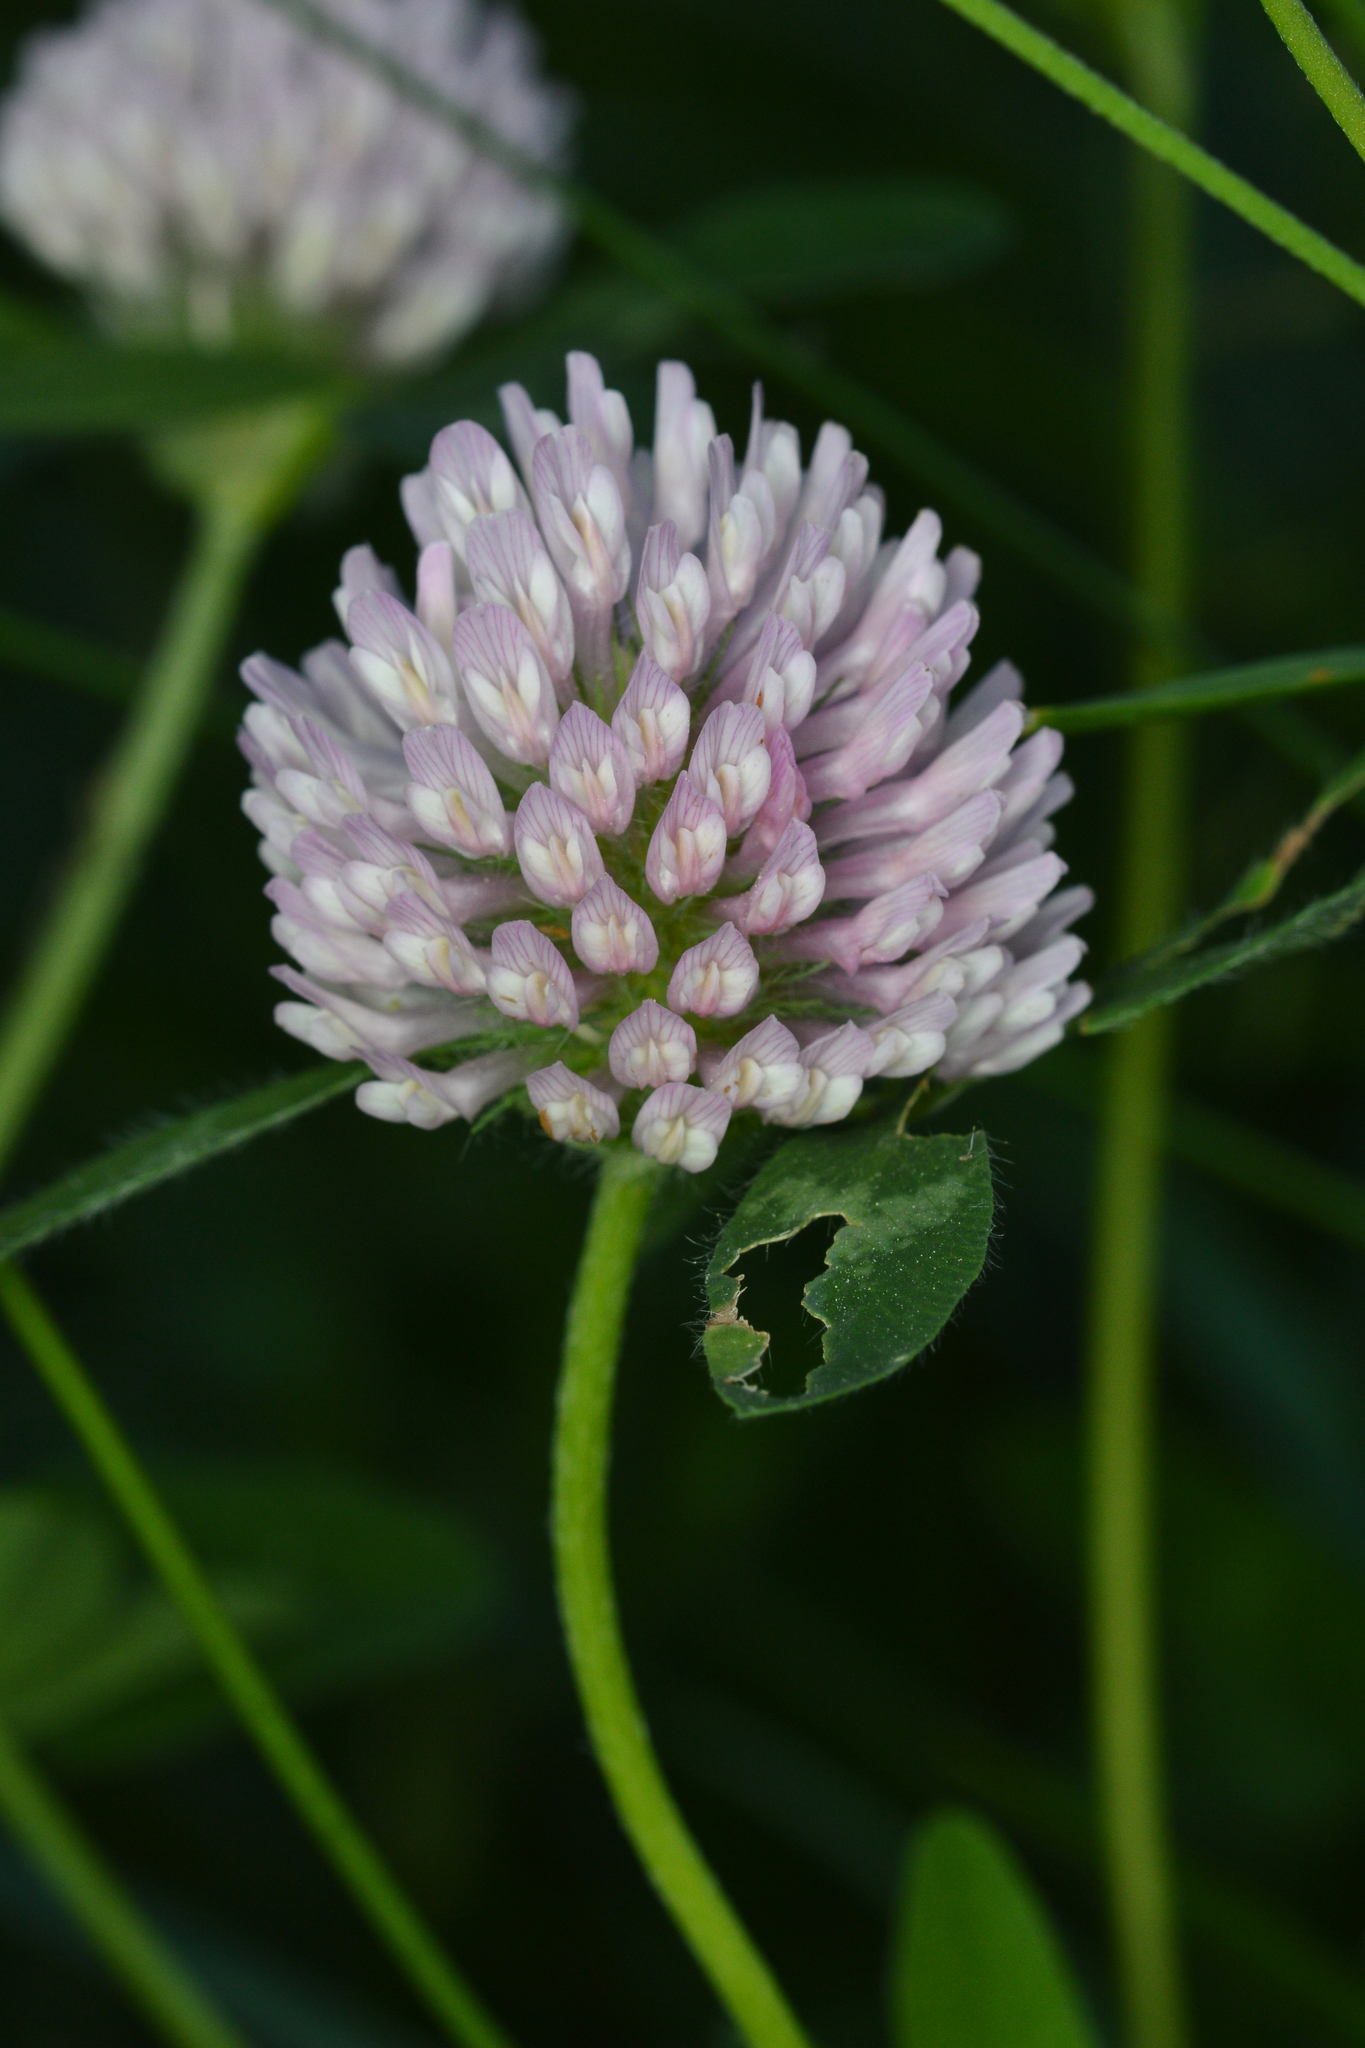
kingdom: Plantae
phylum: Tracheophyta
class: Magnoliopsida
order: Fabales
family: Fabaceae
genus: Trifolium
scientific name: Trifolium pratense
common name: Red clover
